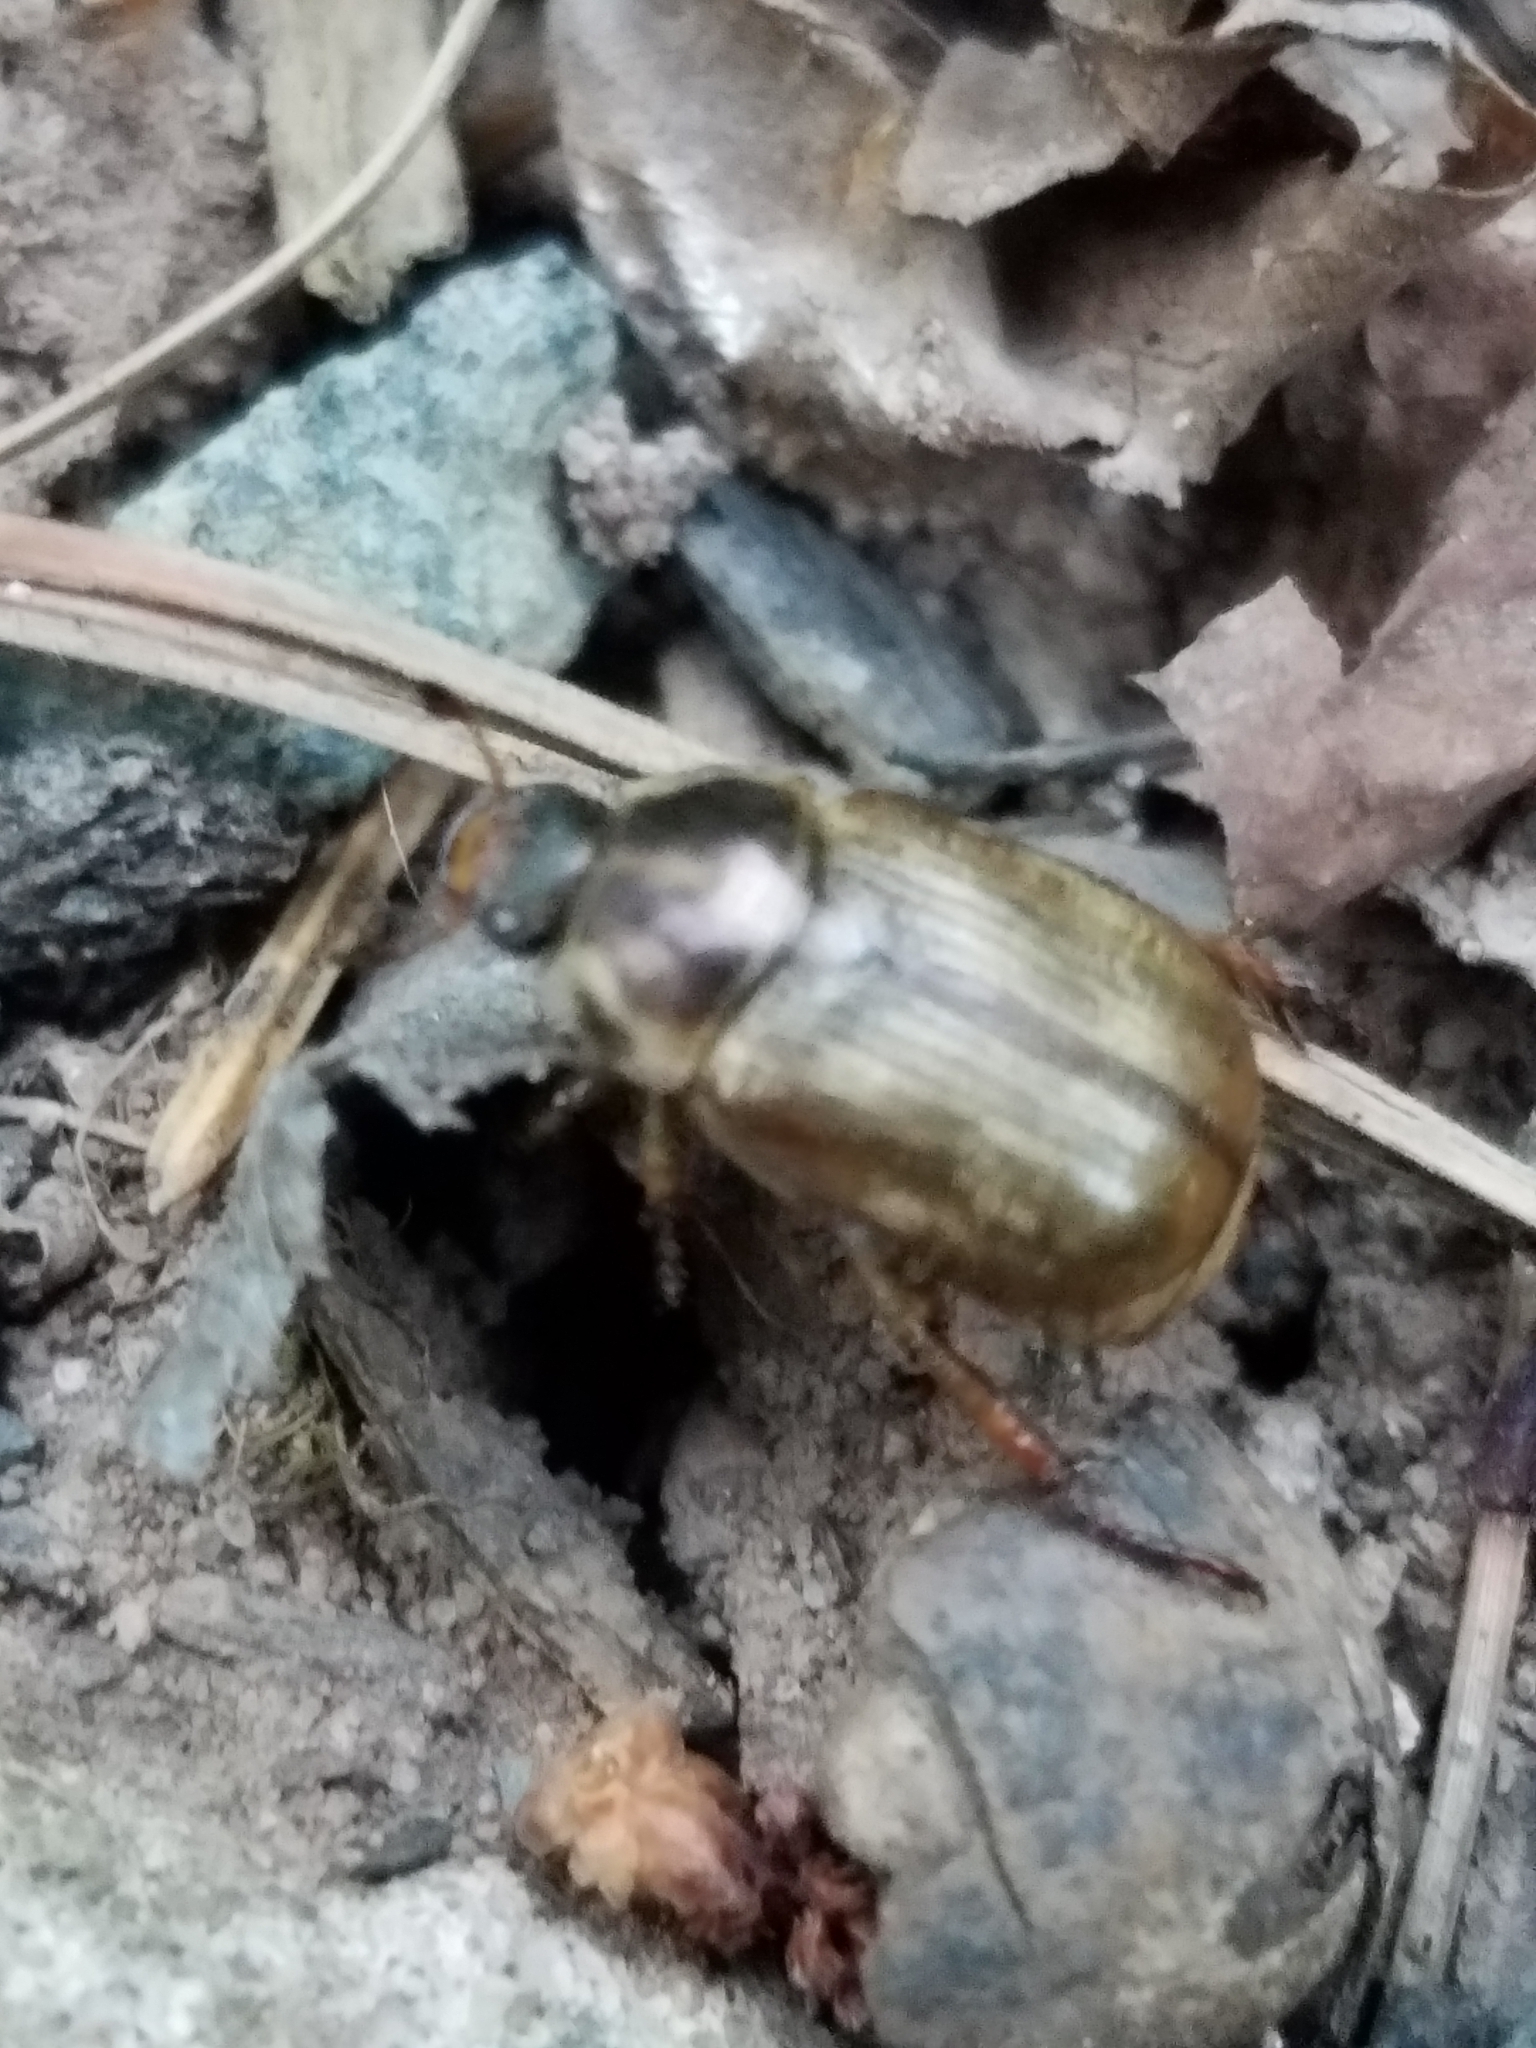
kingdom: Animalia
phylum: Arthropoda
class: Insecta
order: Coleoptera
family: Scarabaeidae
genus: Exomala
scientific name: Exomala orientalis
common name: Oriental beetle
